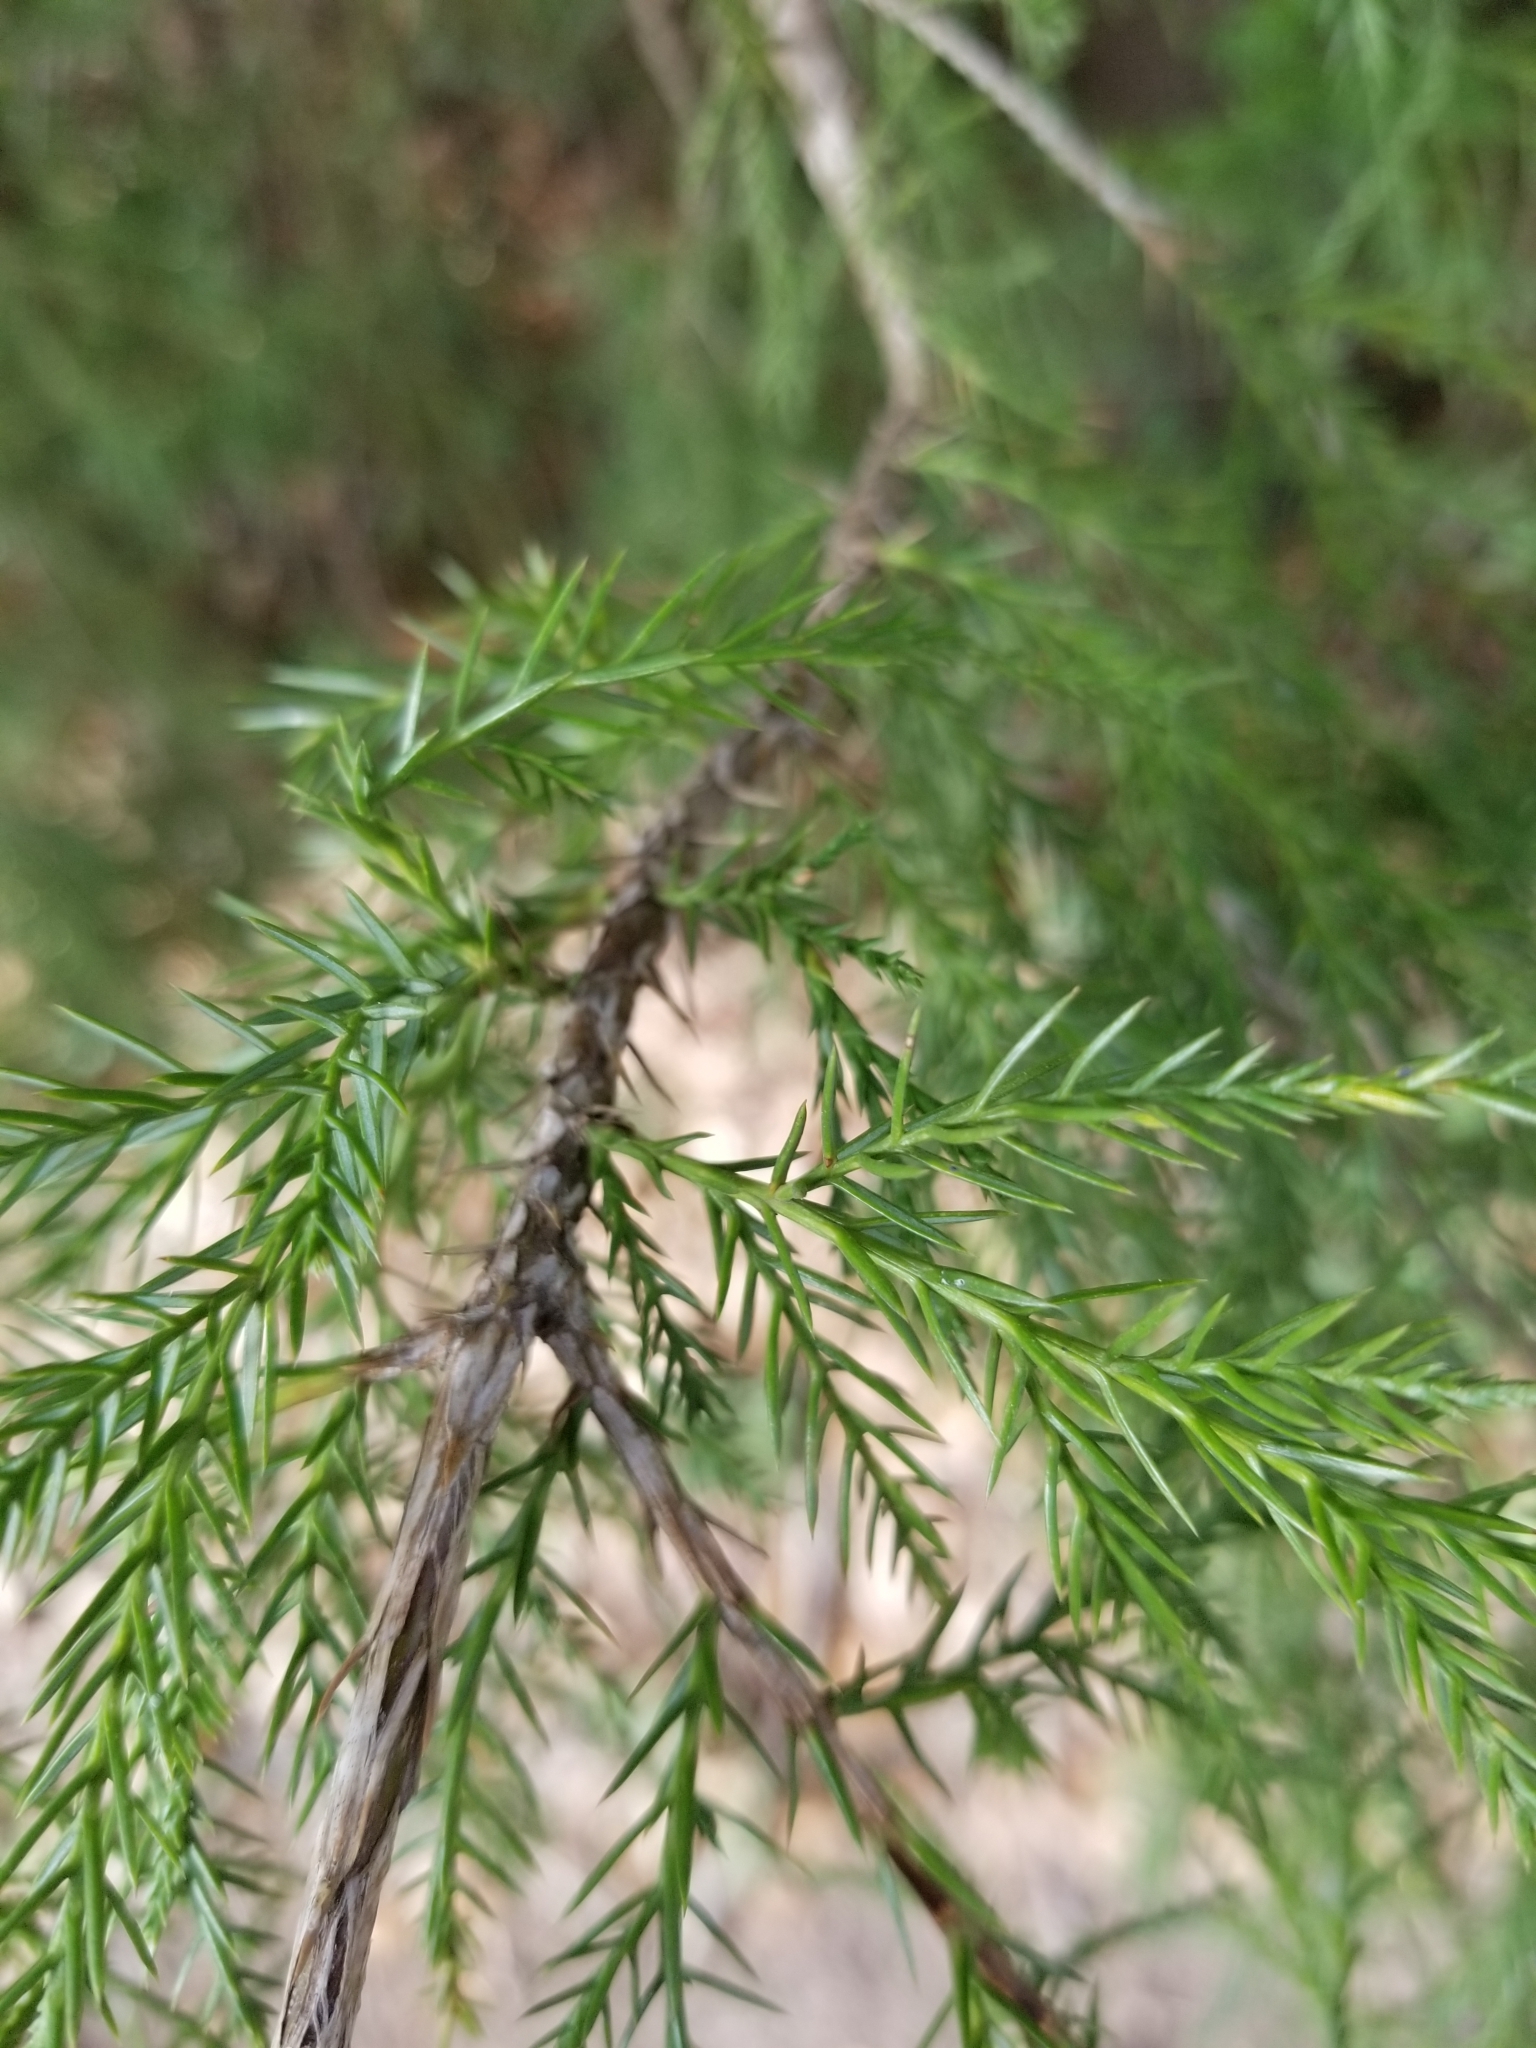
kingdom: Plantae
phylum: Tracheophyta
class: Pinopsida
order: Pinales
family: Cupressaceae
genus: Juniperus
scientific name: Juniperus virginiana
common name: Red juniper
